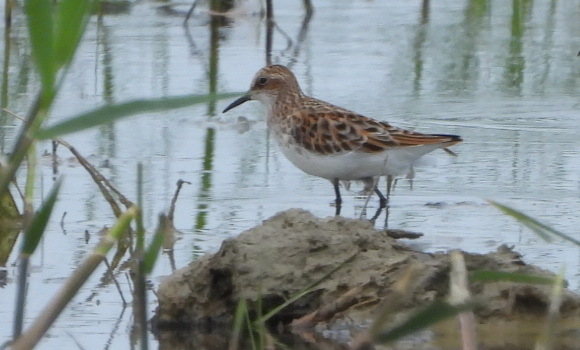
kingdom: Animalia
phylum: Chordata
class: Aves
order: Charadriiformes
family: Scolopacidae
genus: Calidris
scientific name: Calidris minuta
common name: Little stint
